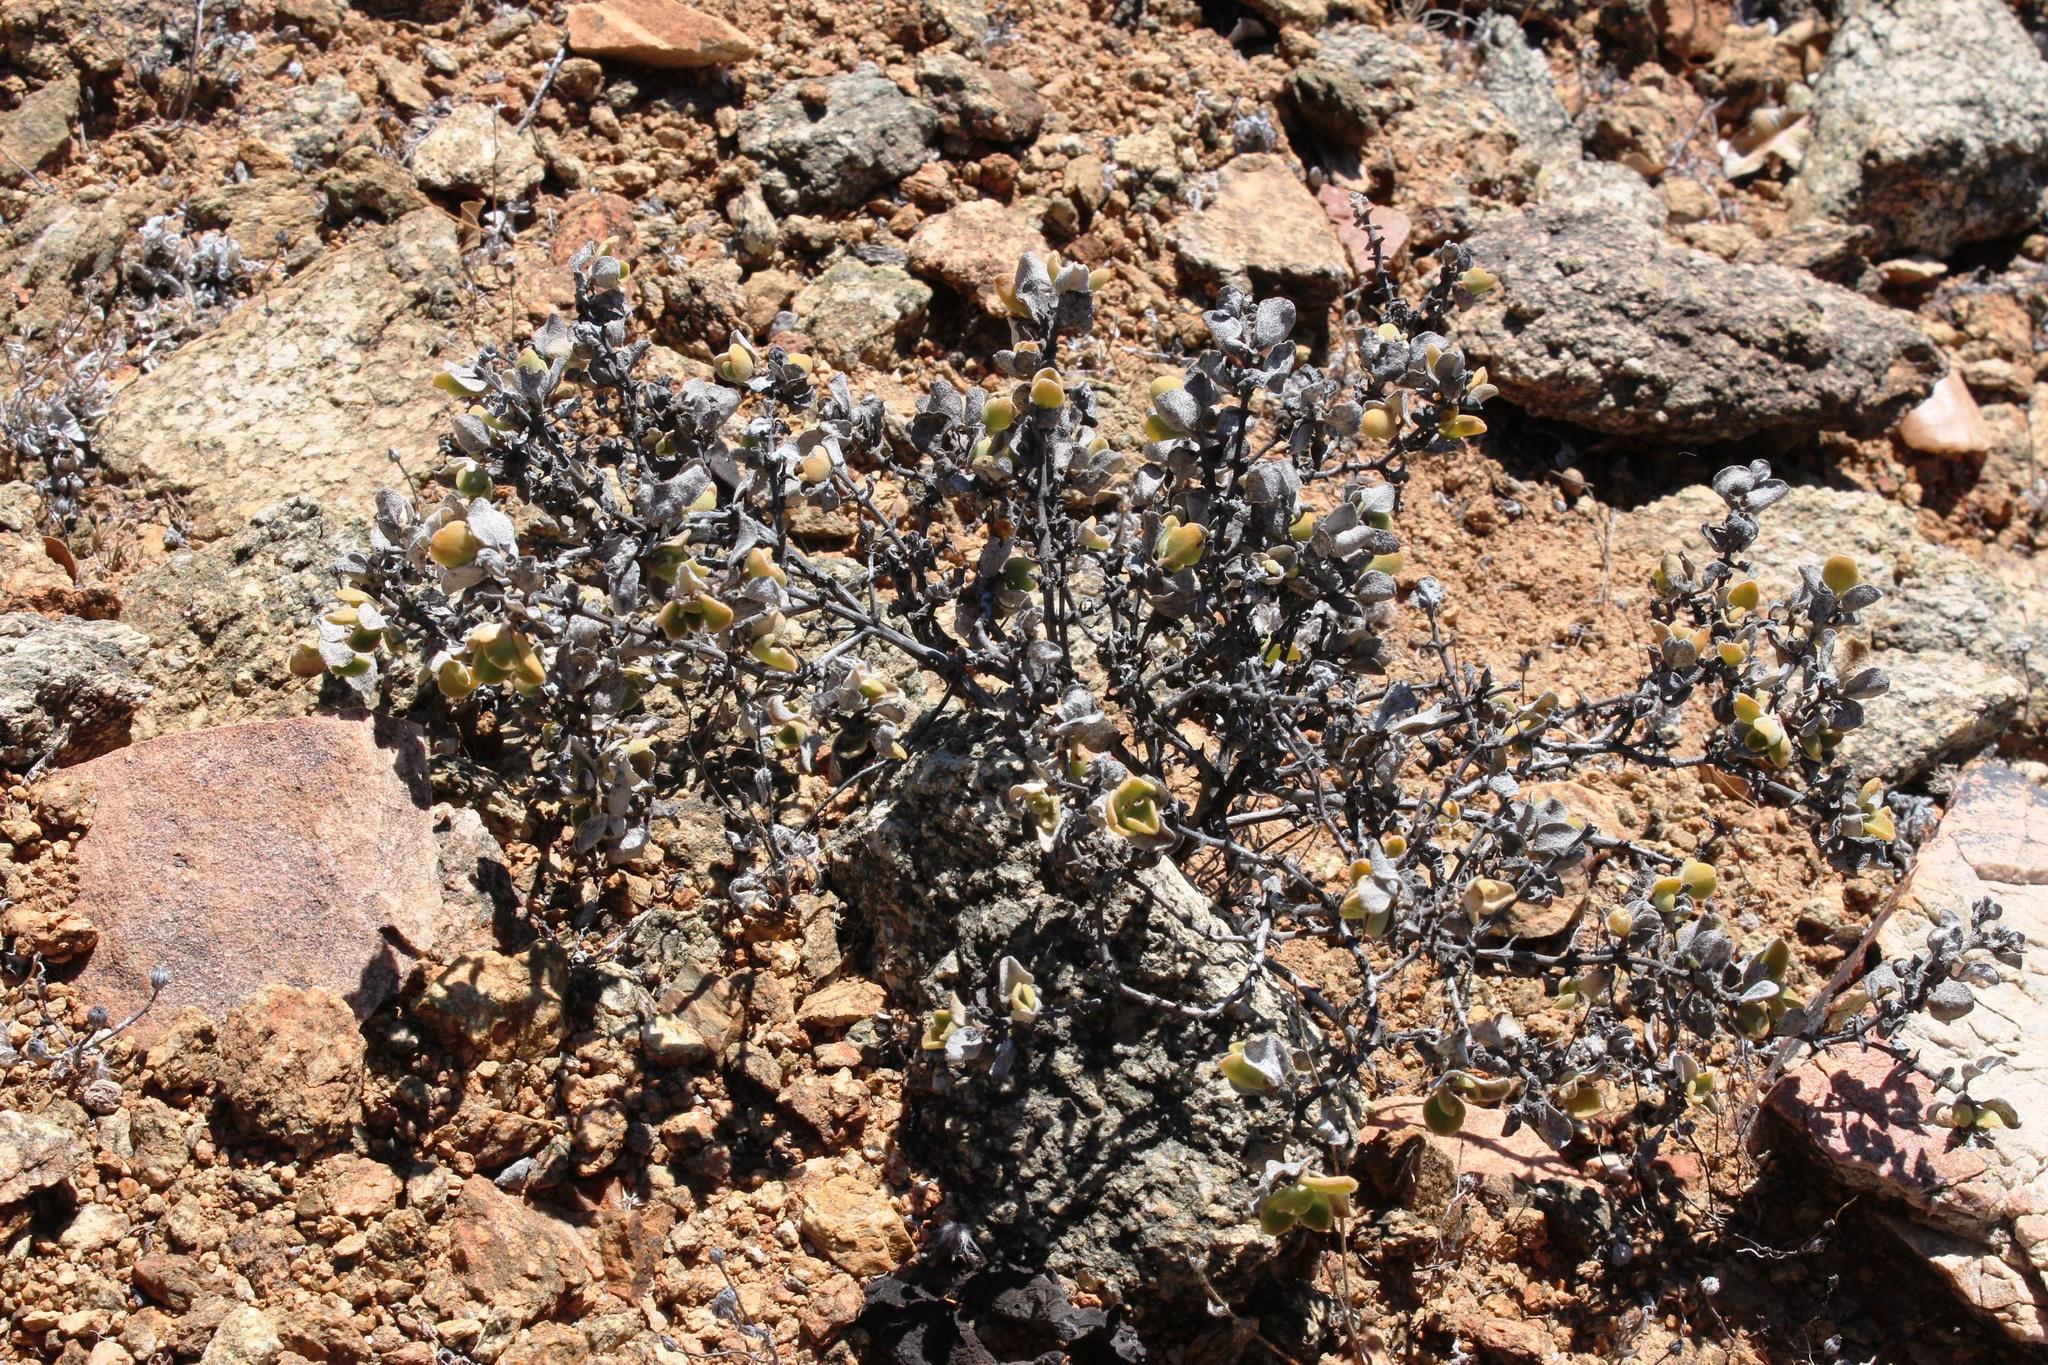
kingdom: Plantae
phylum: Tracheophyta
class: Magnoliopsida
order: Caryophyllales
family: Aizoaceae
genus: Mesembryanthemum
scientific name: Mesembryanthemum sladenianum
